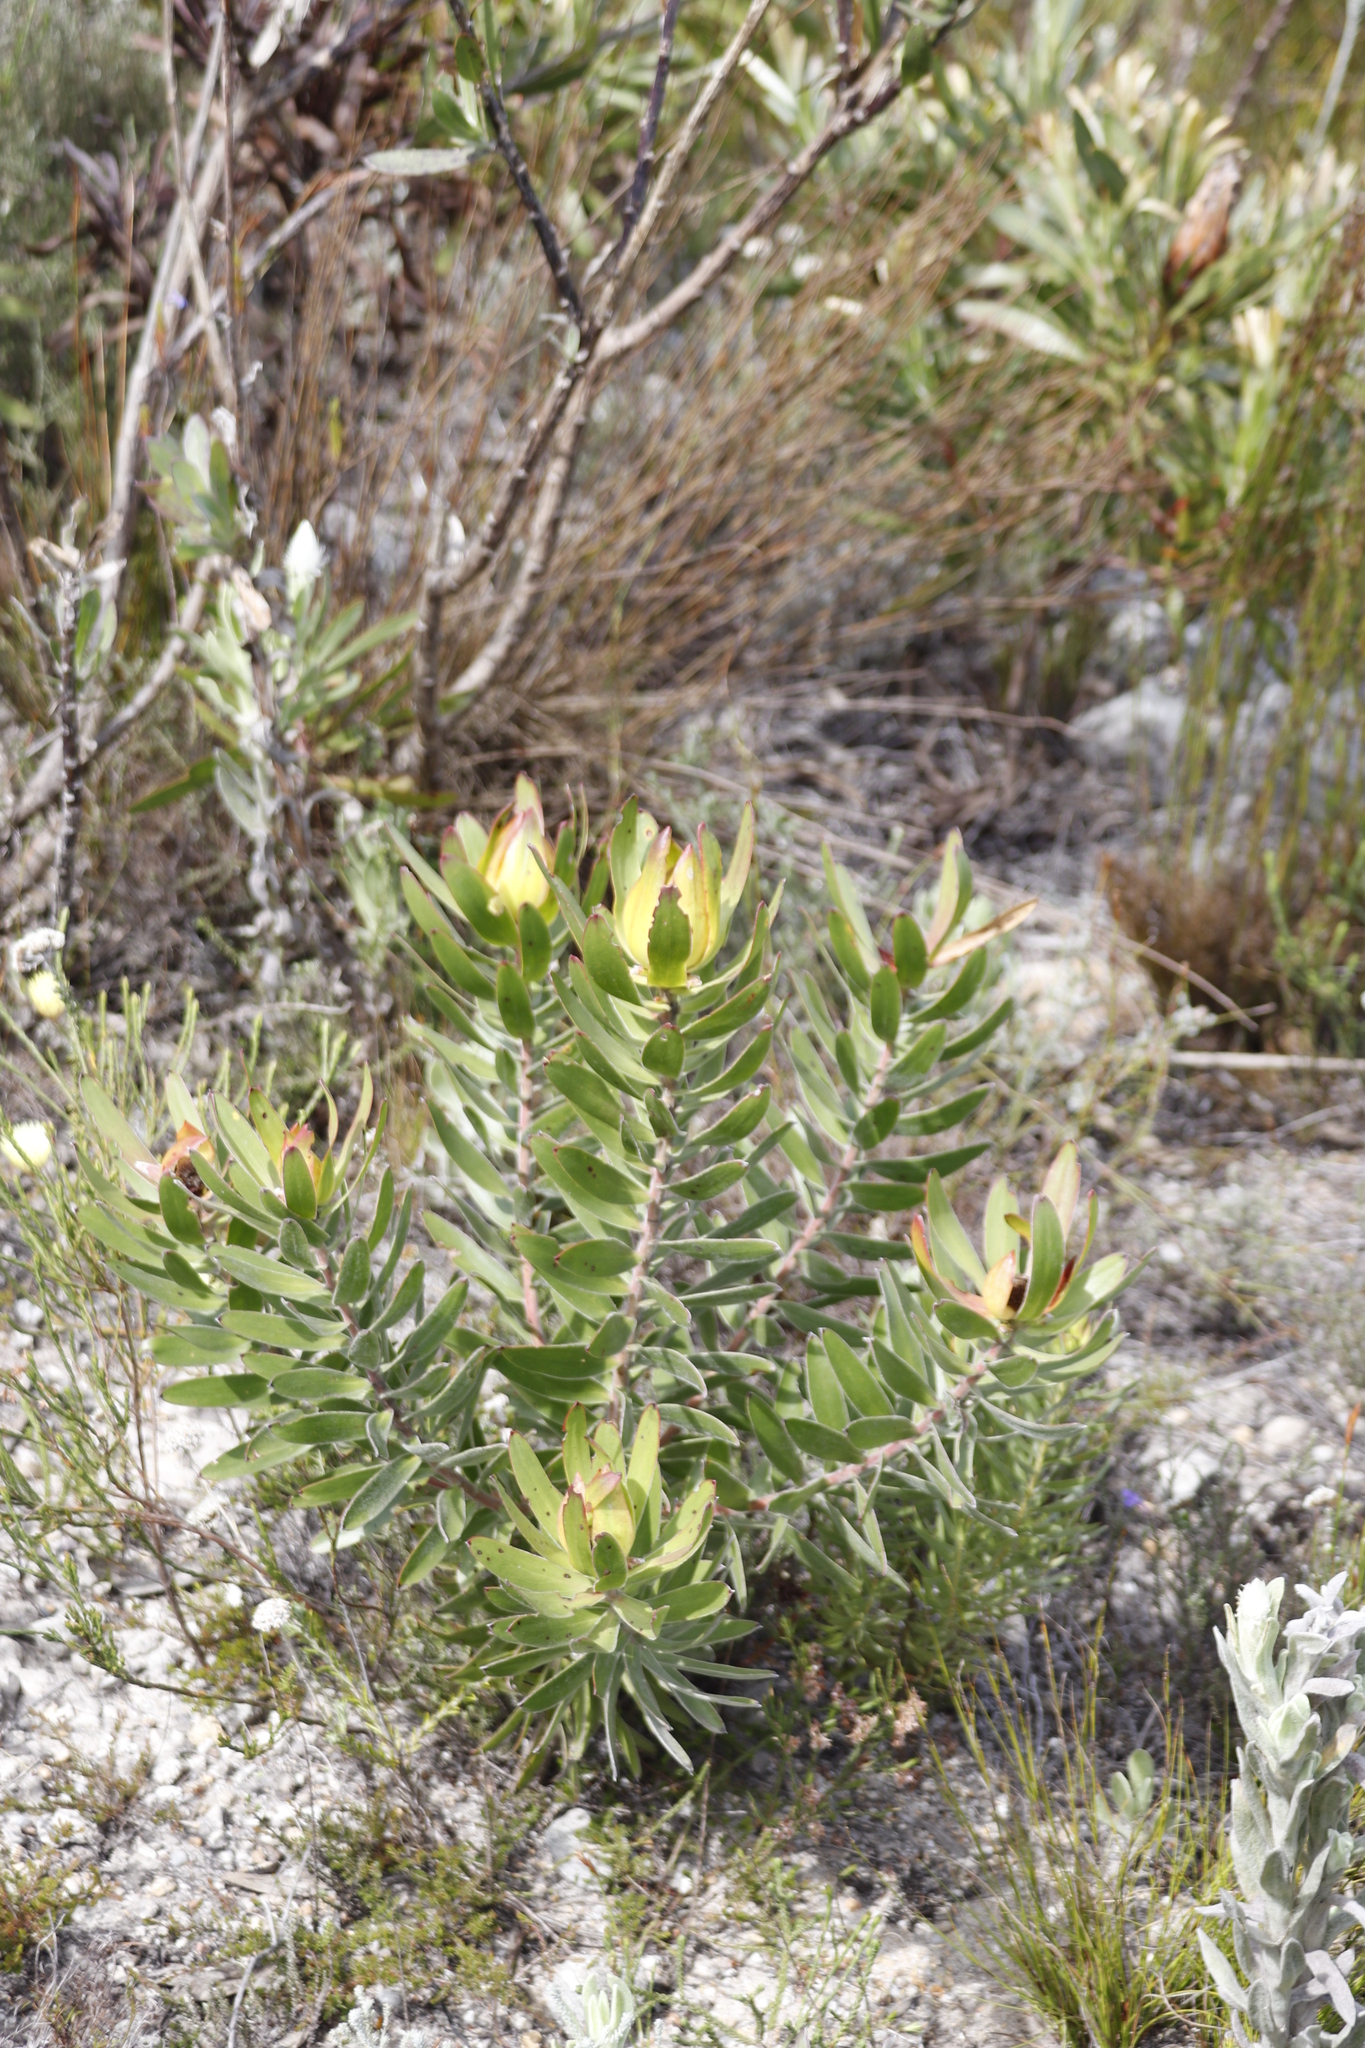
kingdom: Plantae
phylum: Tracheophyta
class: Magnoliopsida
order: Proteales
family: Proteaceae
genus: Leucadendron
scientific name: Leucadendron laureolum
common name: Golden sunshinebush
